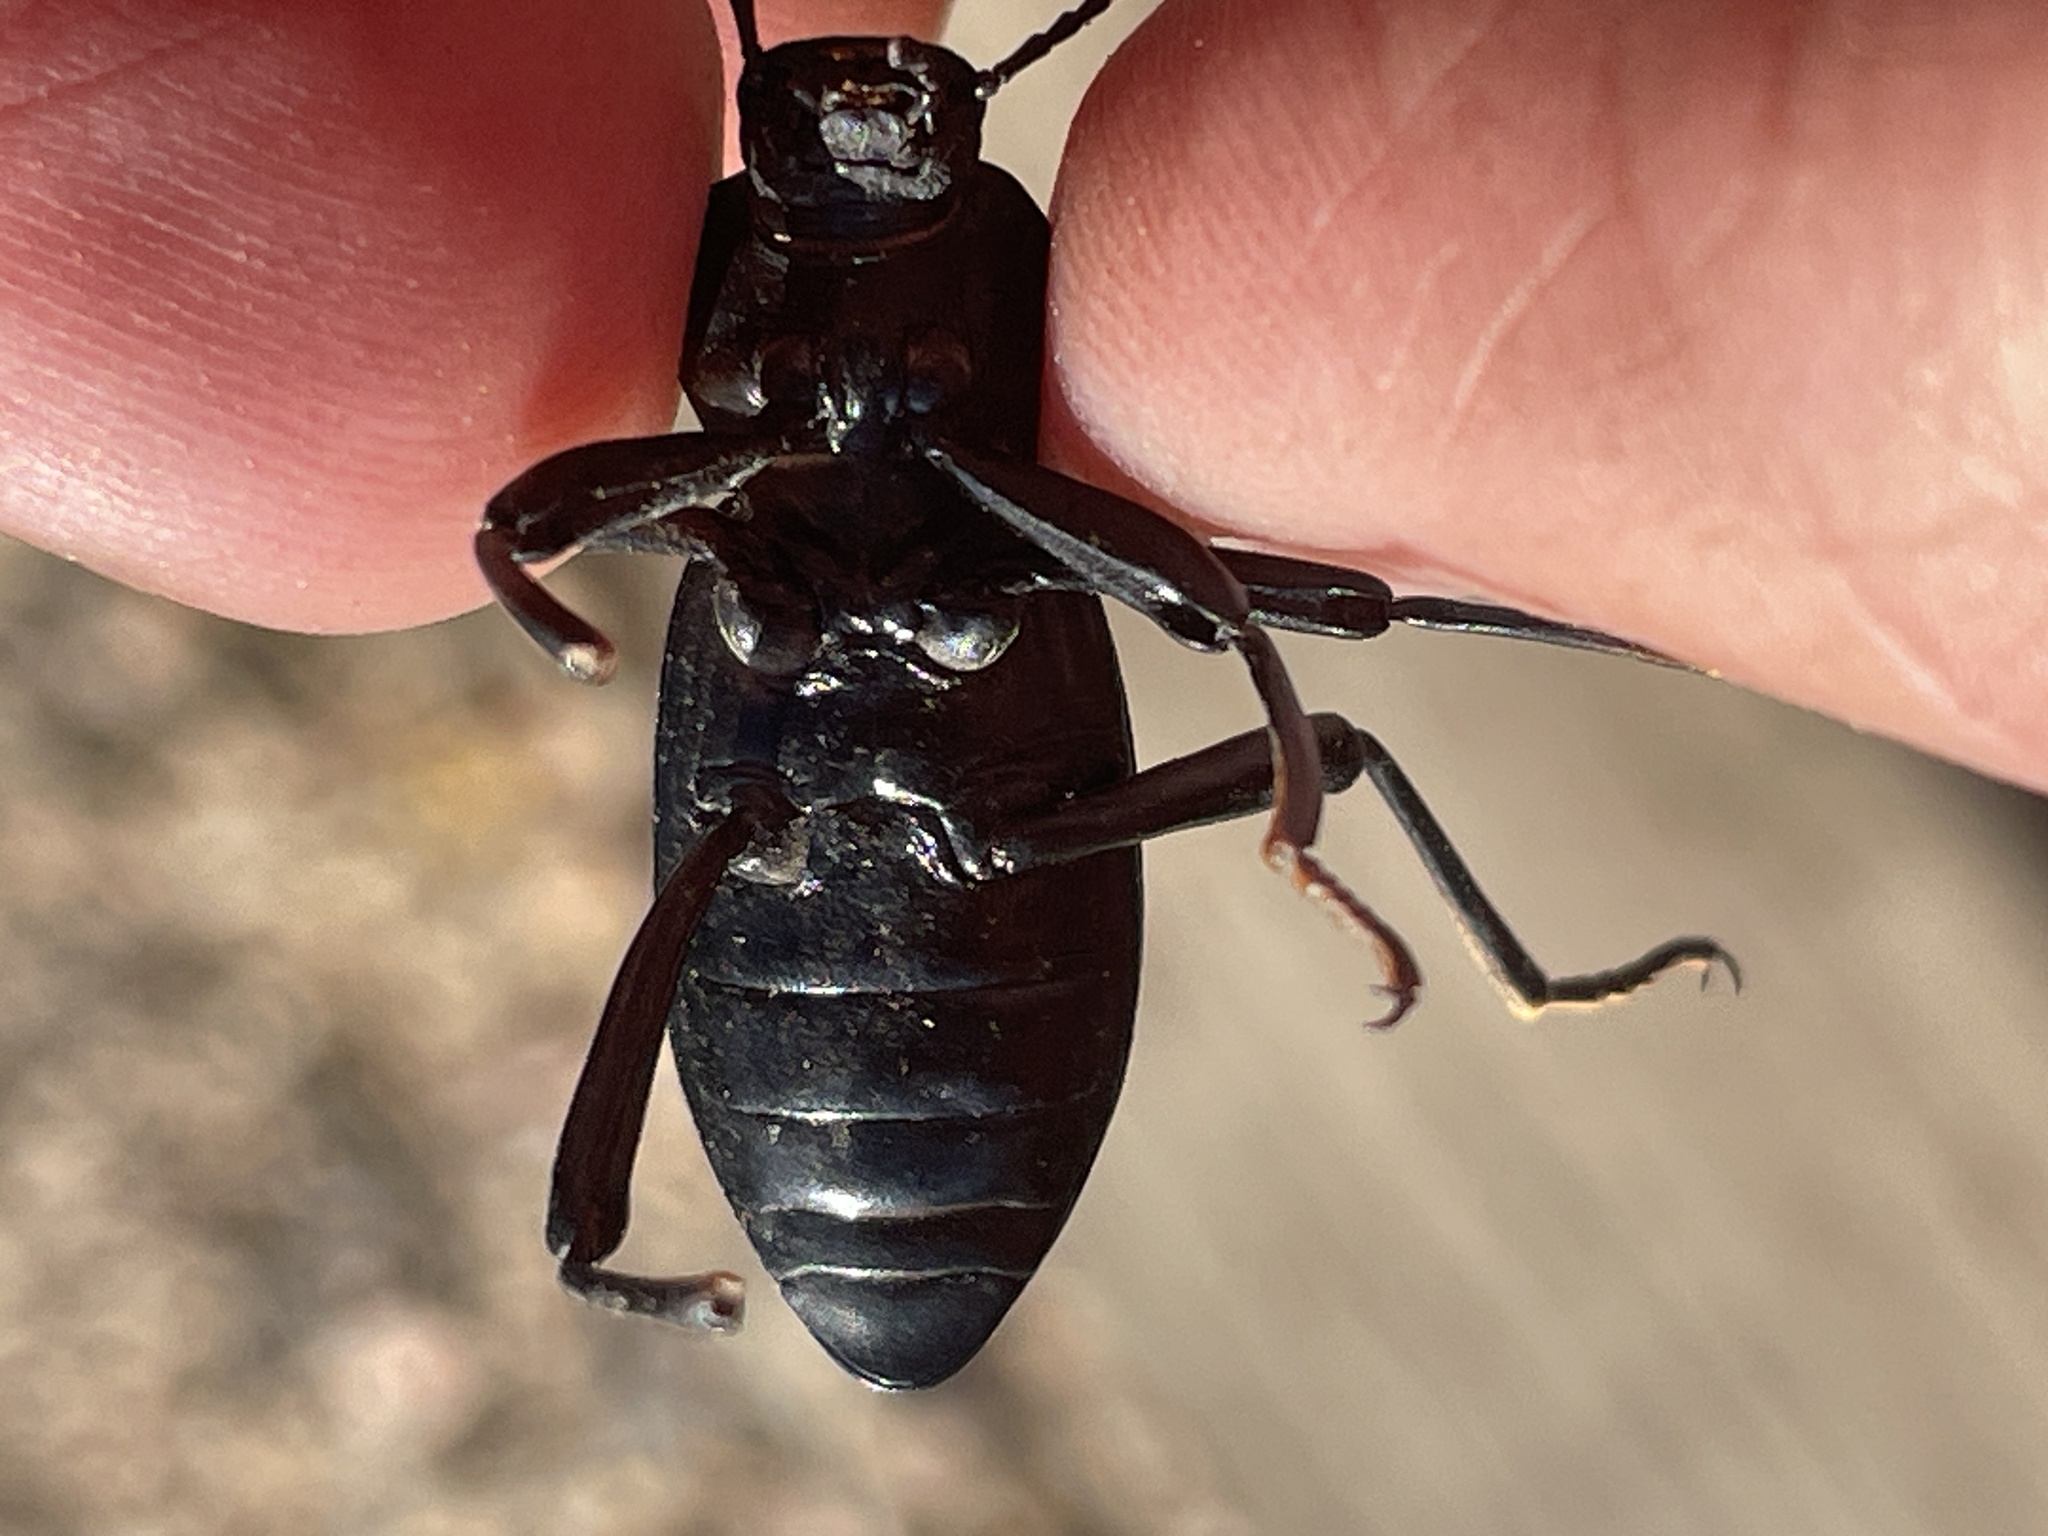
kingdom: Animalia
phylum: Arthropoda
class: Insecta
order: Coleoptera
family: Tenebrionidae
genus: Coelocnemis
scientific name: Coelocnemis sulcata
